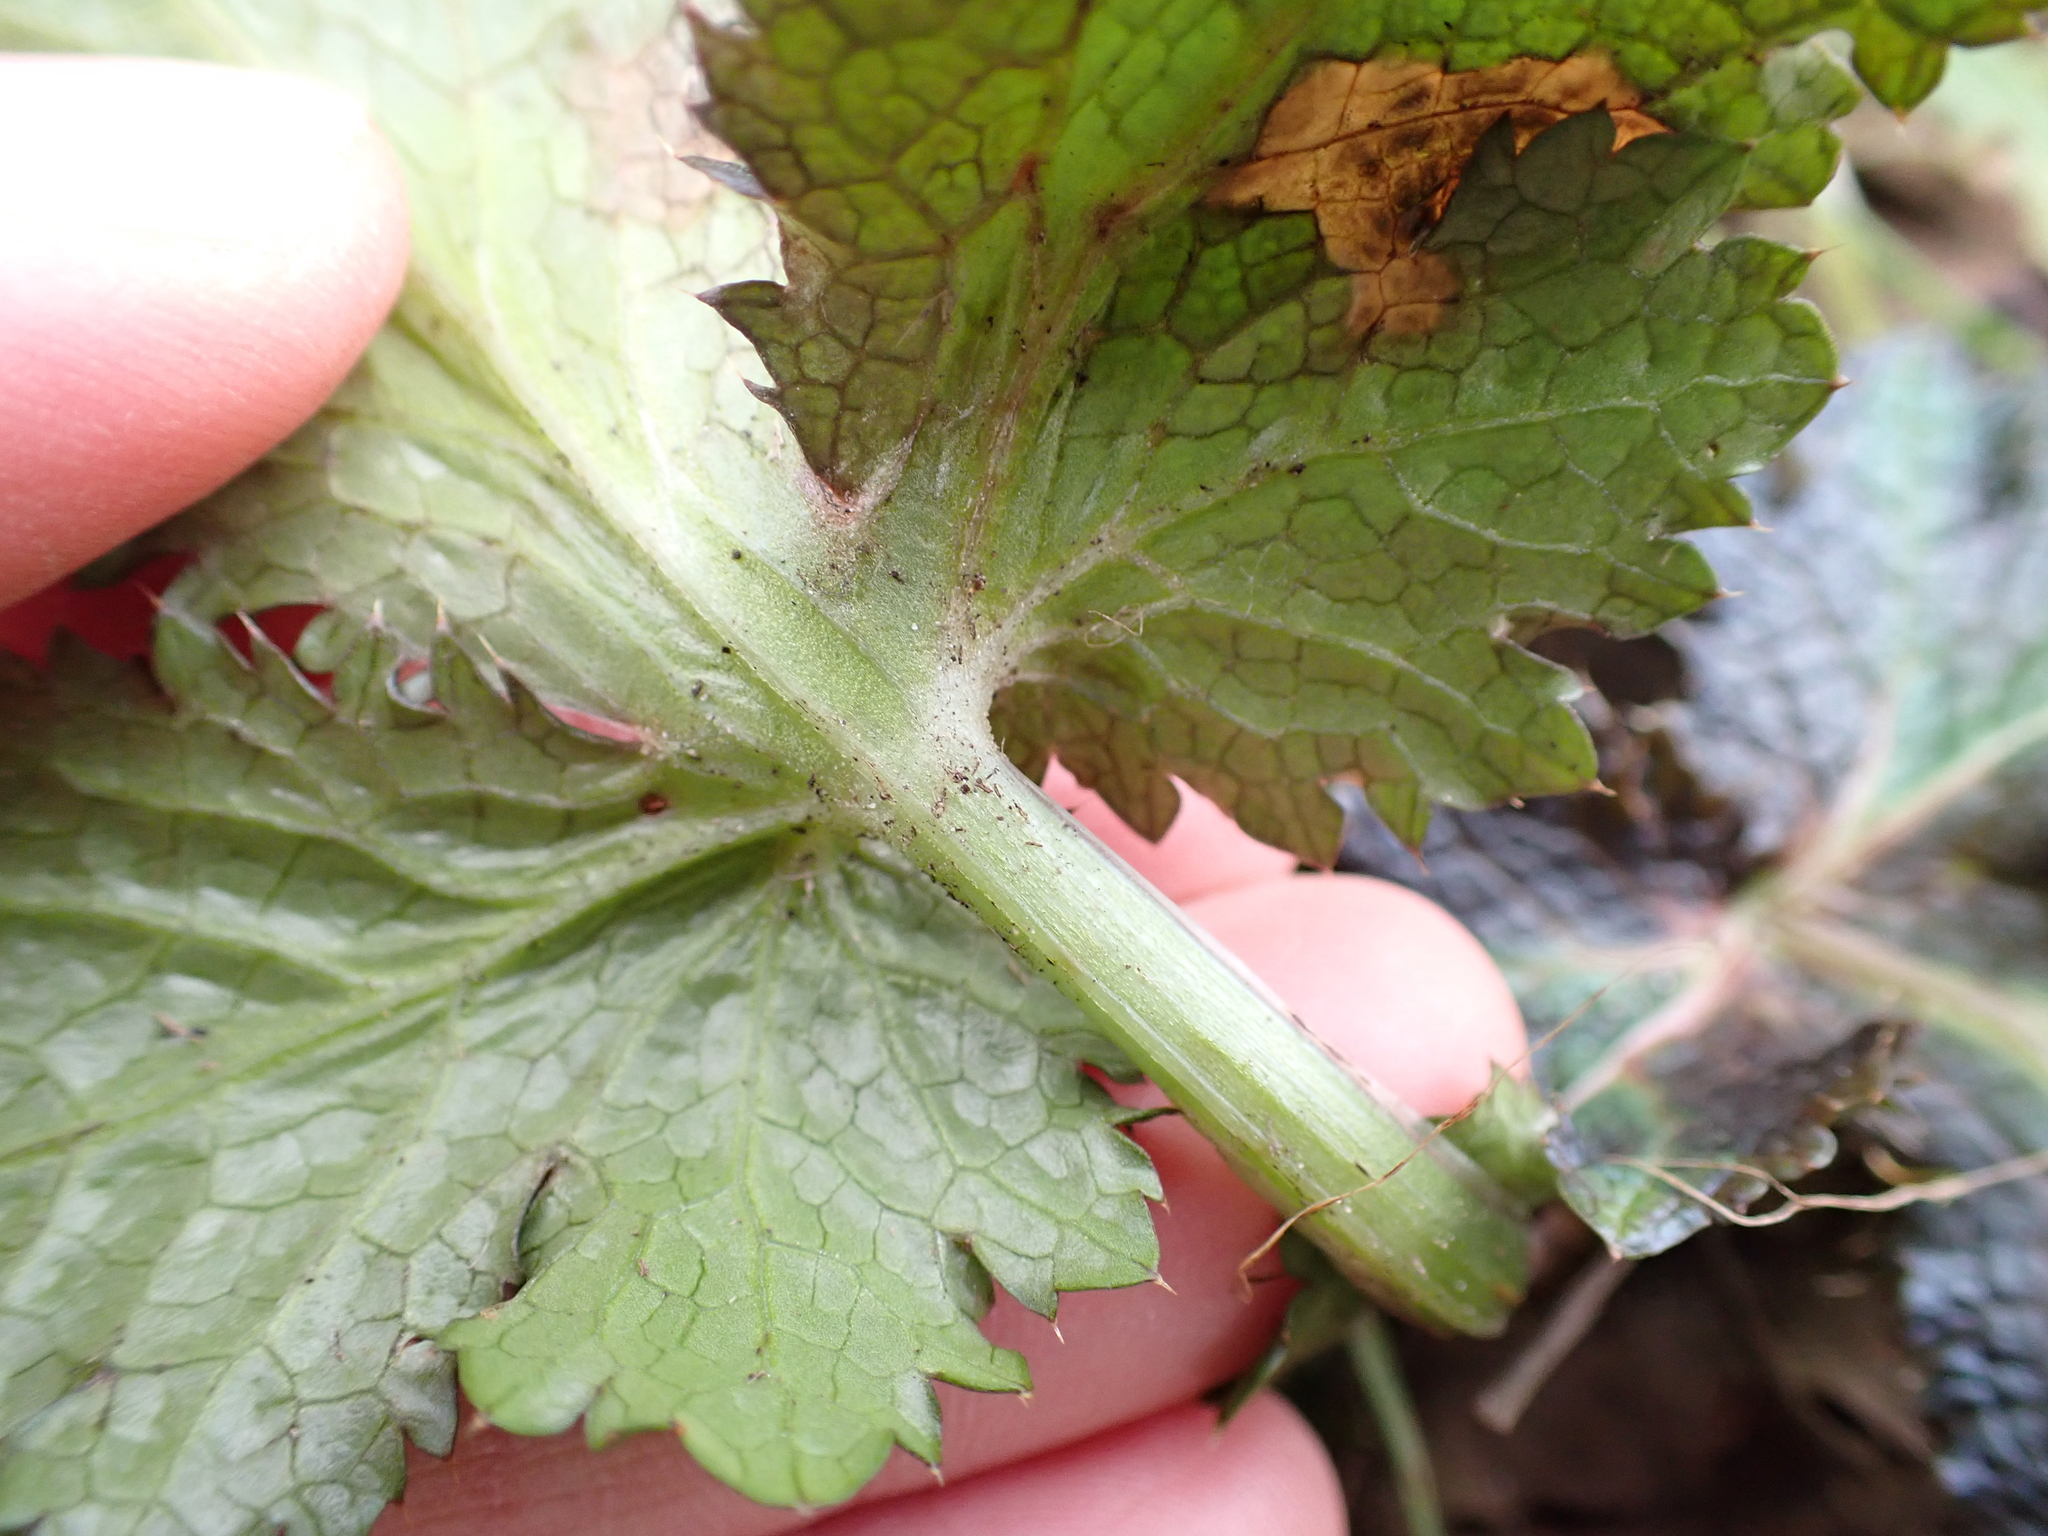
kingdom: Plantae
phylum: Tracheophyta
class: Magnoliopsida
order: Apiales
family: Apiaceae
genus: Sanicula
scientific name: Sanicula crassicaulis
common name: Western snakeroot
